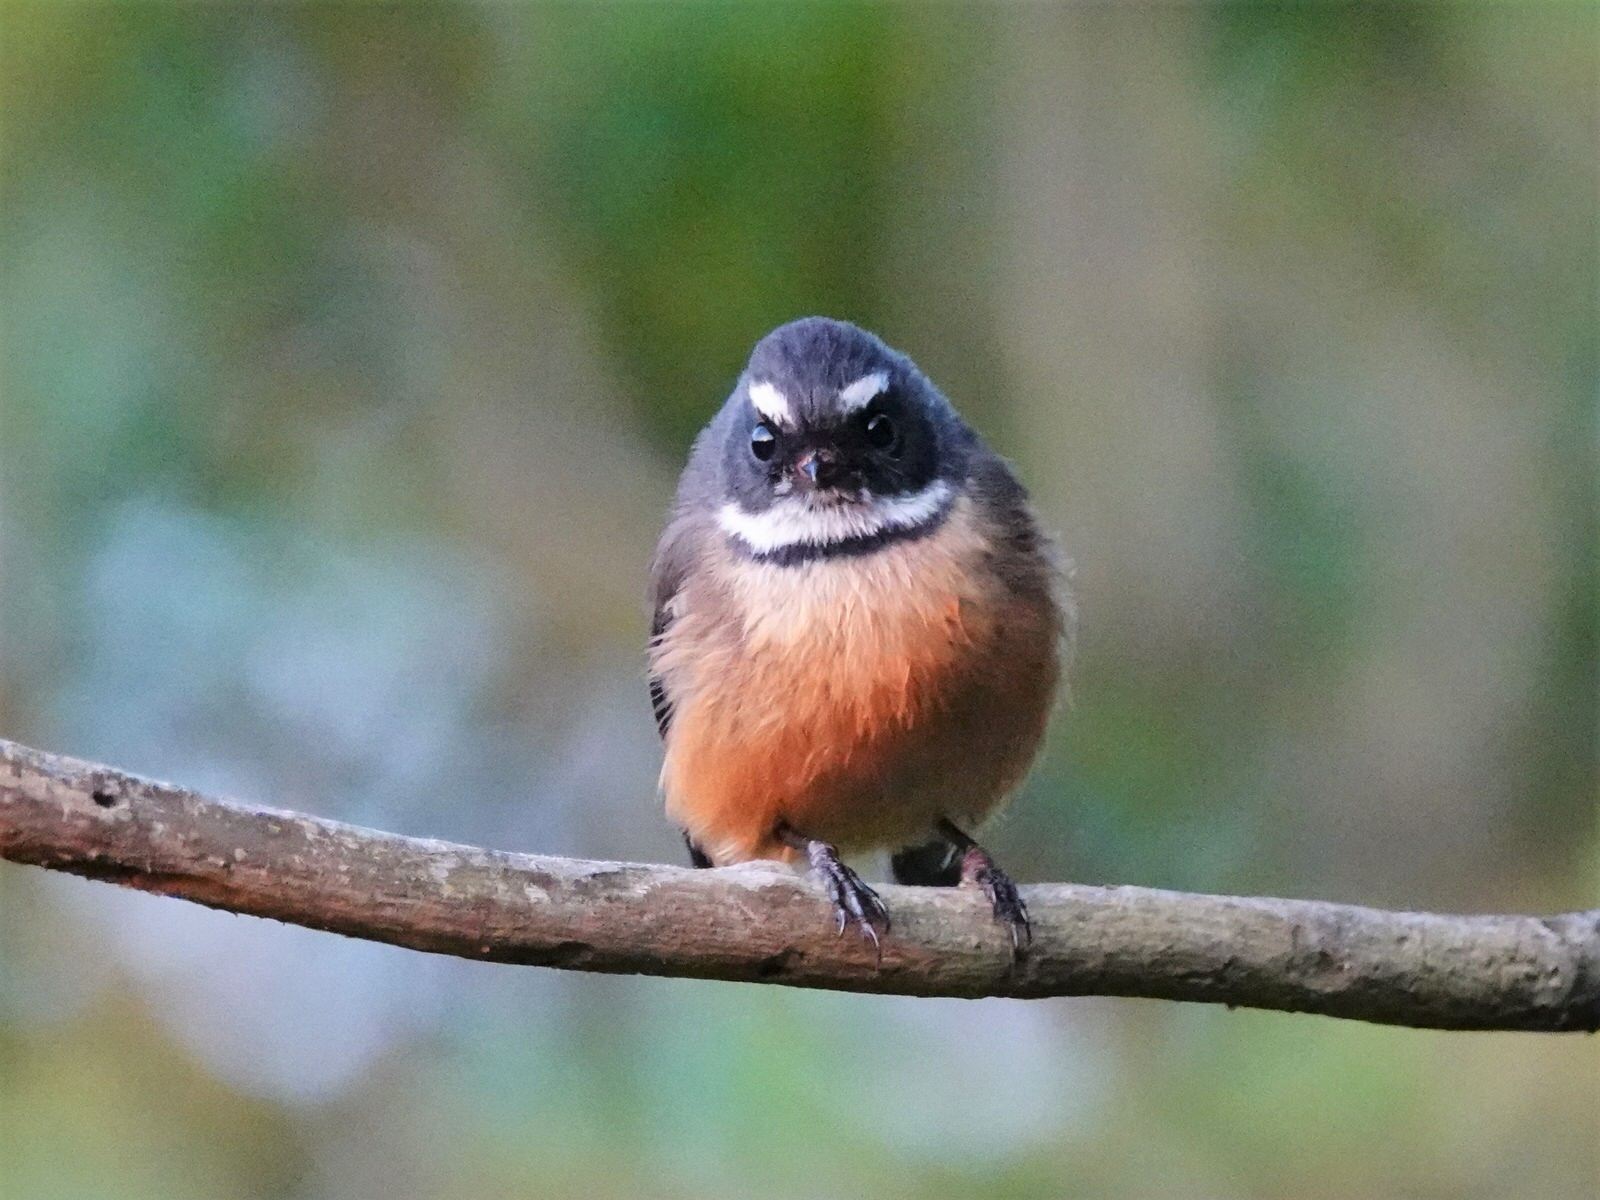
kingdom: Animalia
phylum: Chordata
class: Aves
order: Passeriformes
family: Rhipiduridae
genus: Rhipidura
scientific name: Rhipidura fuliginosa
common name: New zealand fantail
